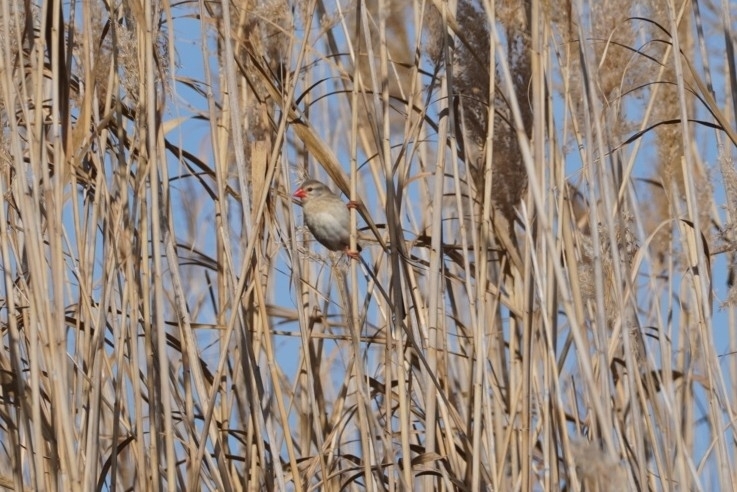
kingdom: Animalia
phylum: Chordata
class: Aves
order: Passeriformes
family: Ploceidae
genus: Quelea
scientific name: Quelea quelea
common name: Red-billed quelea
